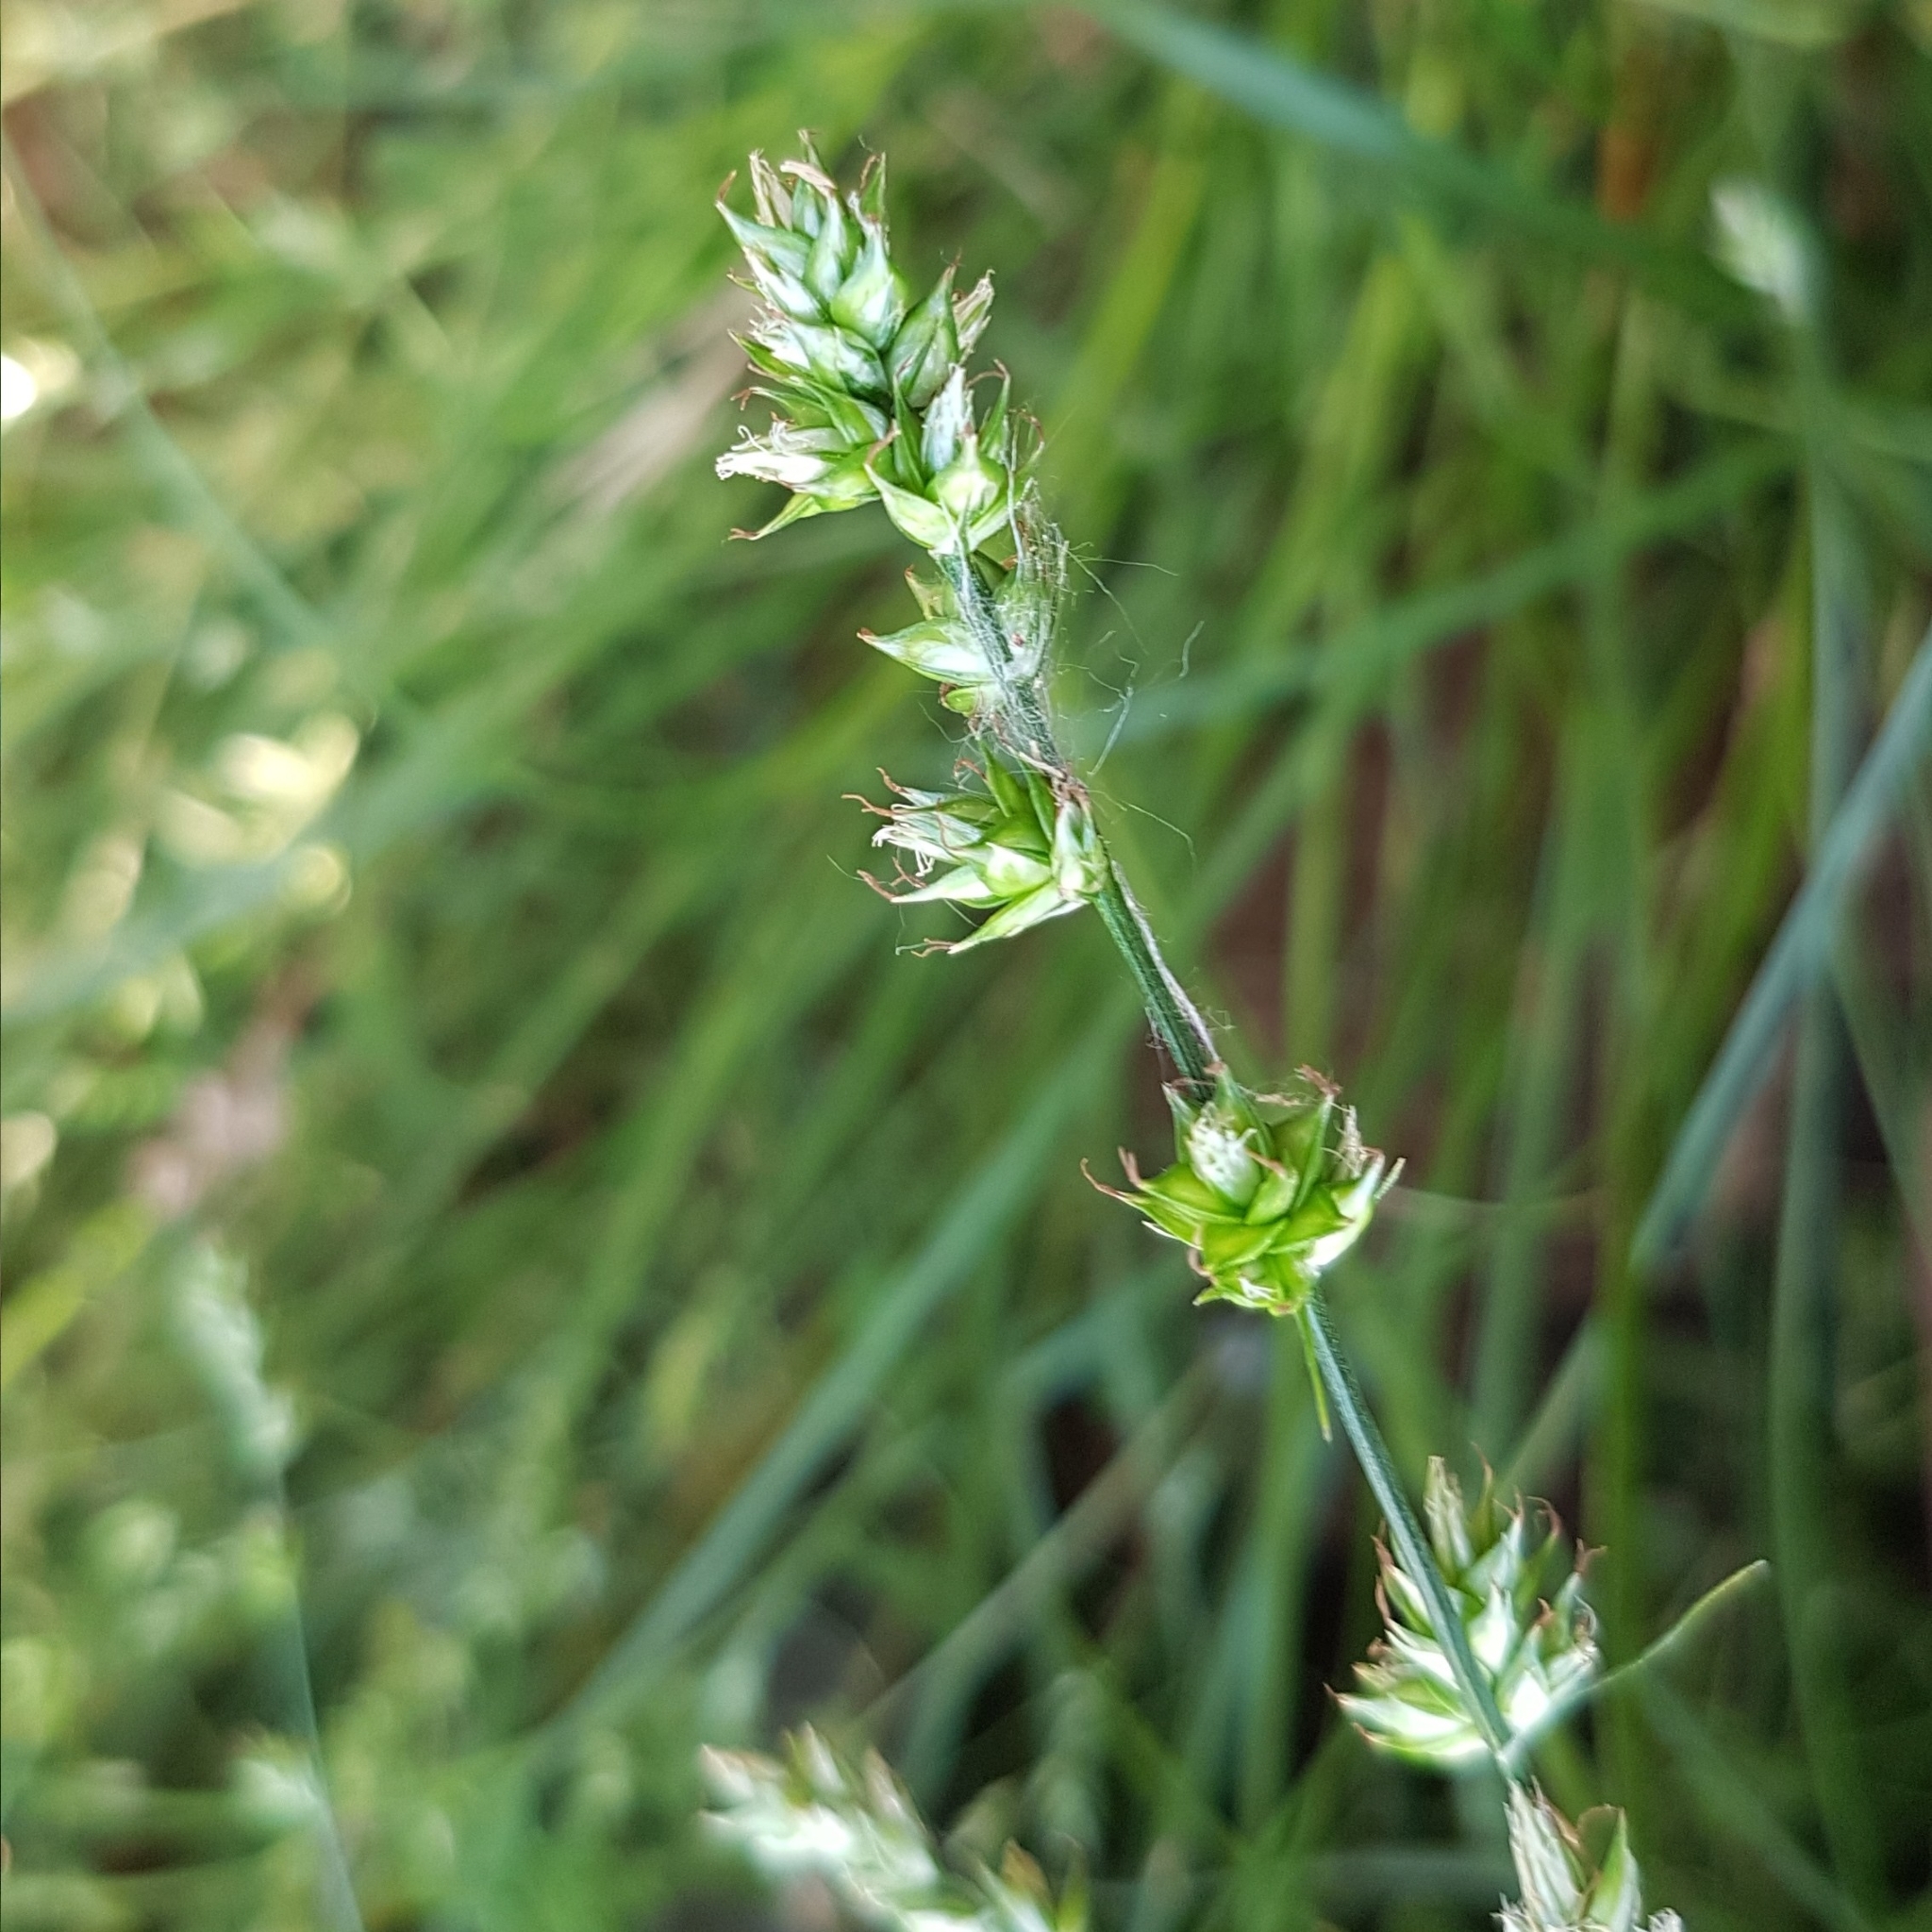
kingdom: Plantae
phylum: Tracheophyta
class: Liliopsida
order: Poales
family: Cyperaceae
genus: Carex
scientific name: Carex divulsa
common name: Grassland sedge
